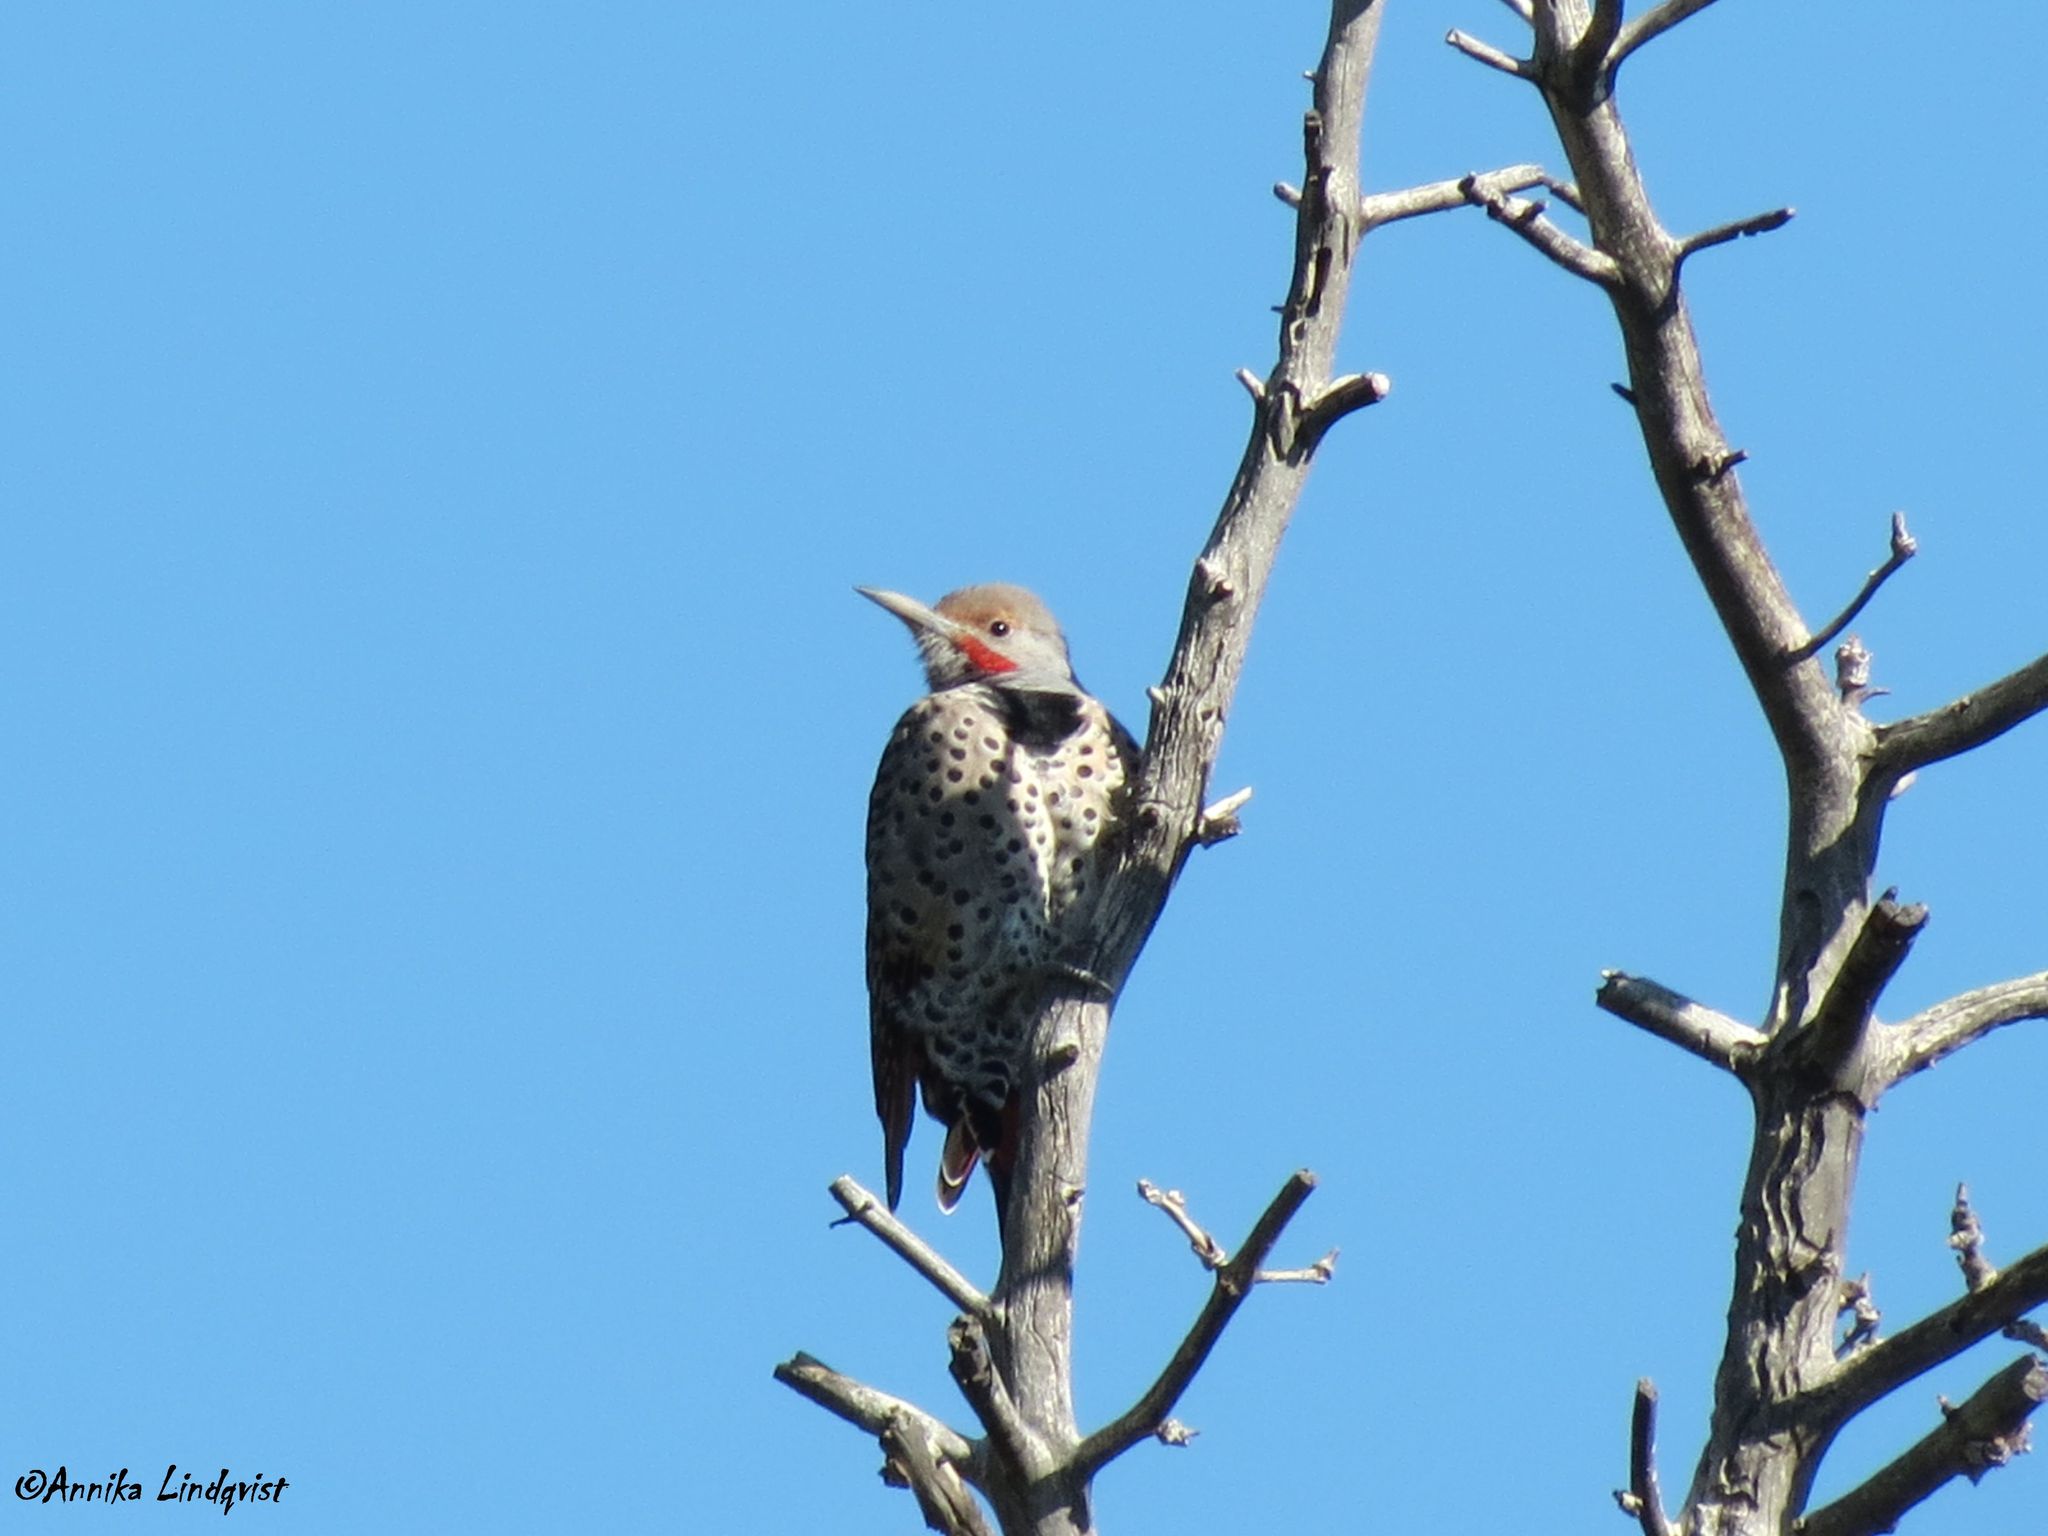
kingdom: Animalia
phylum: Chordata
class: Aves
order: Piciformes
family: Picidae
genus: Colaptes
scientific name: Colaptes auratus
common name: Northern flicker
